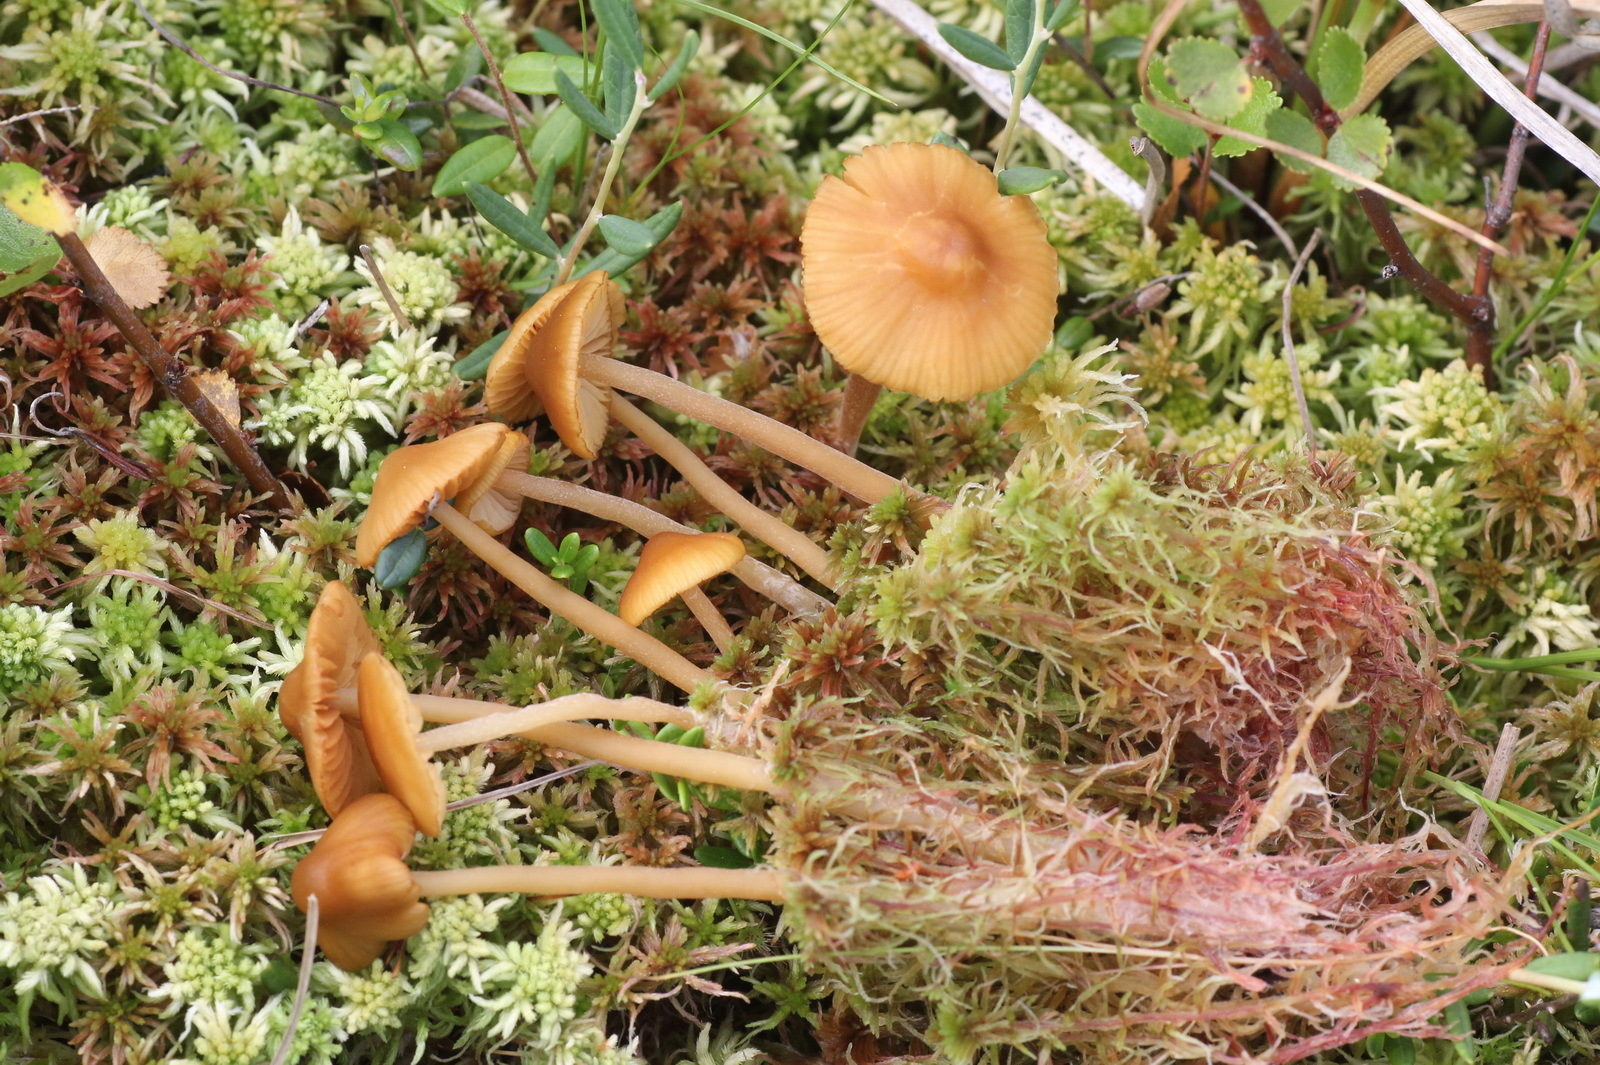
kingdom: Fungi
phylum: Basidiomycota
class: Agaricomycetes
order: Agaricales
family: Hymenogastraceae
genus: Galerina
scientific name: Galerina tibiicystis
